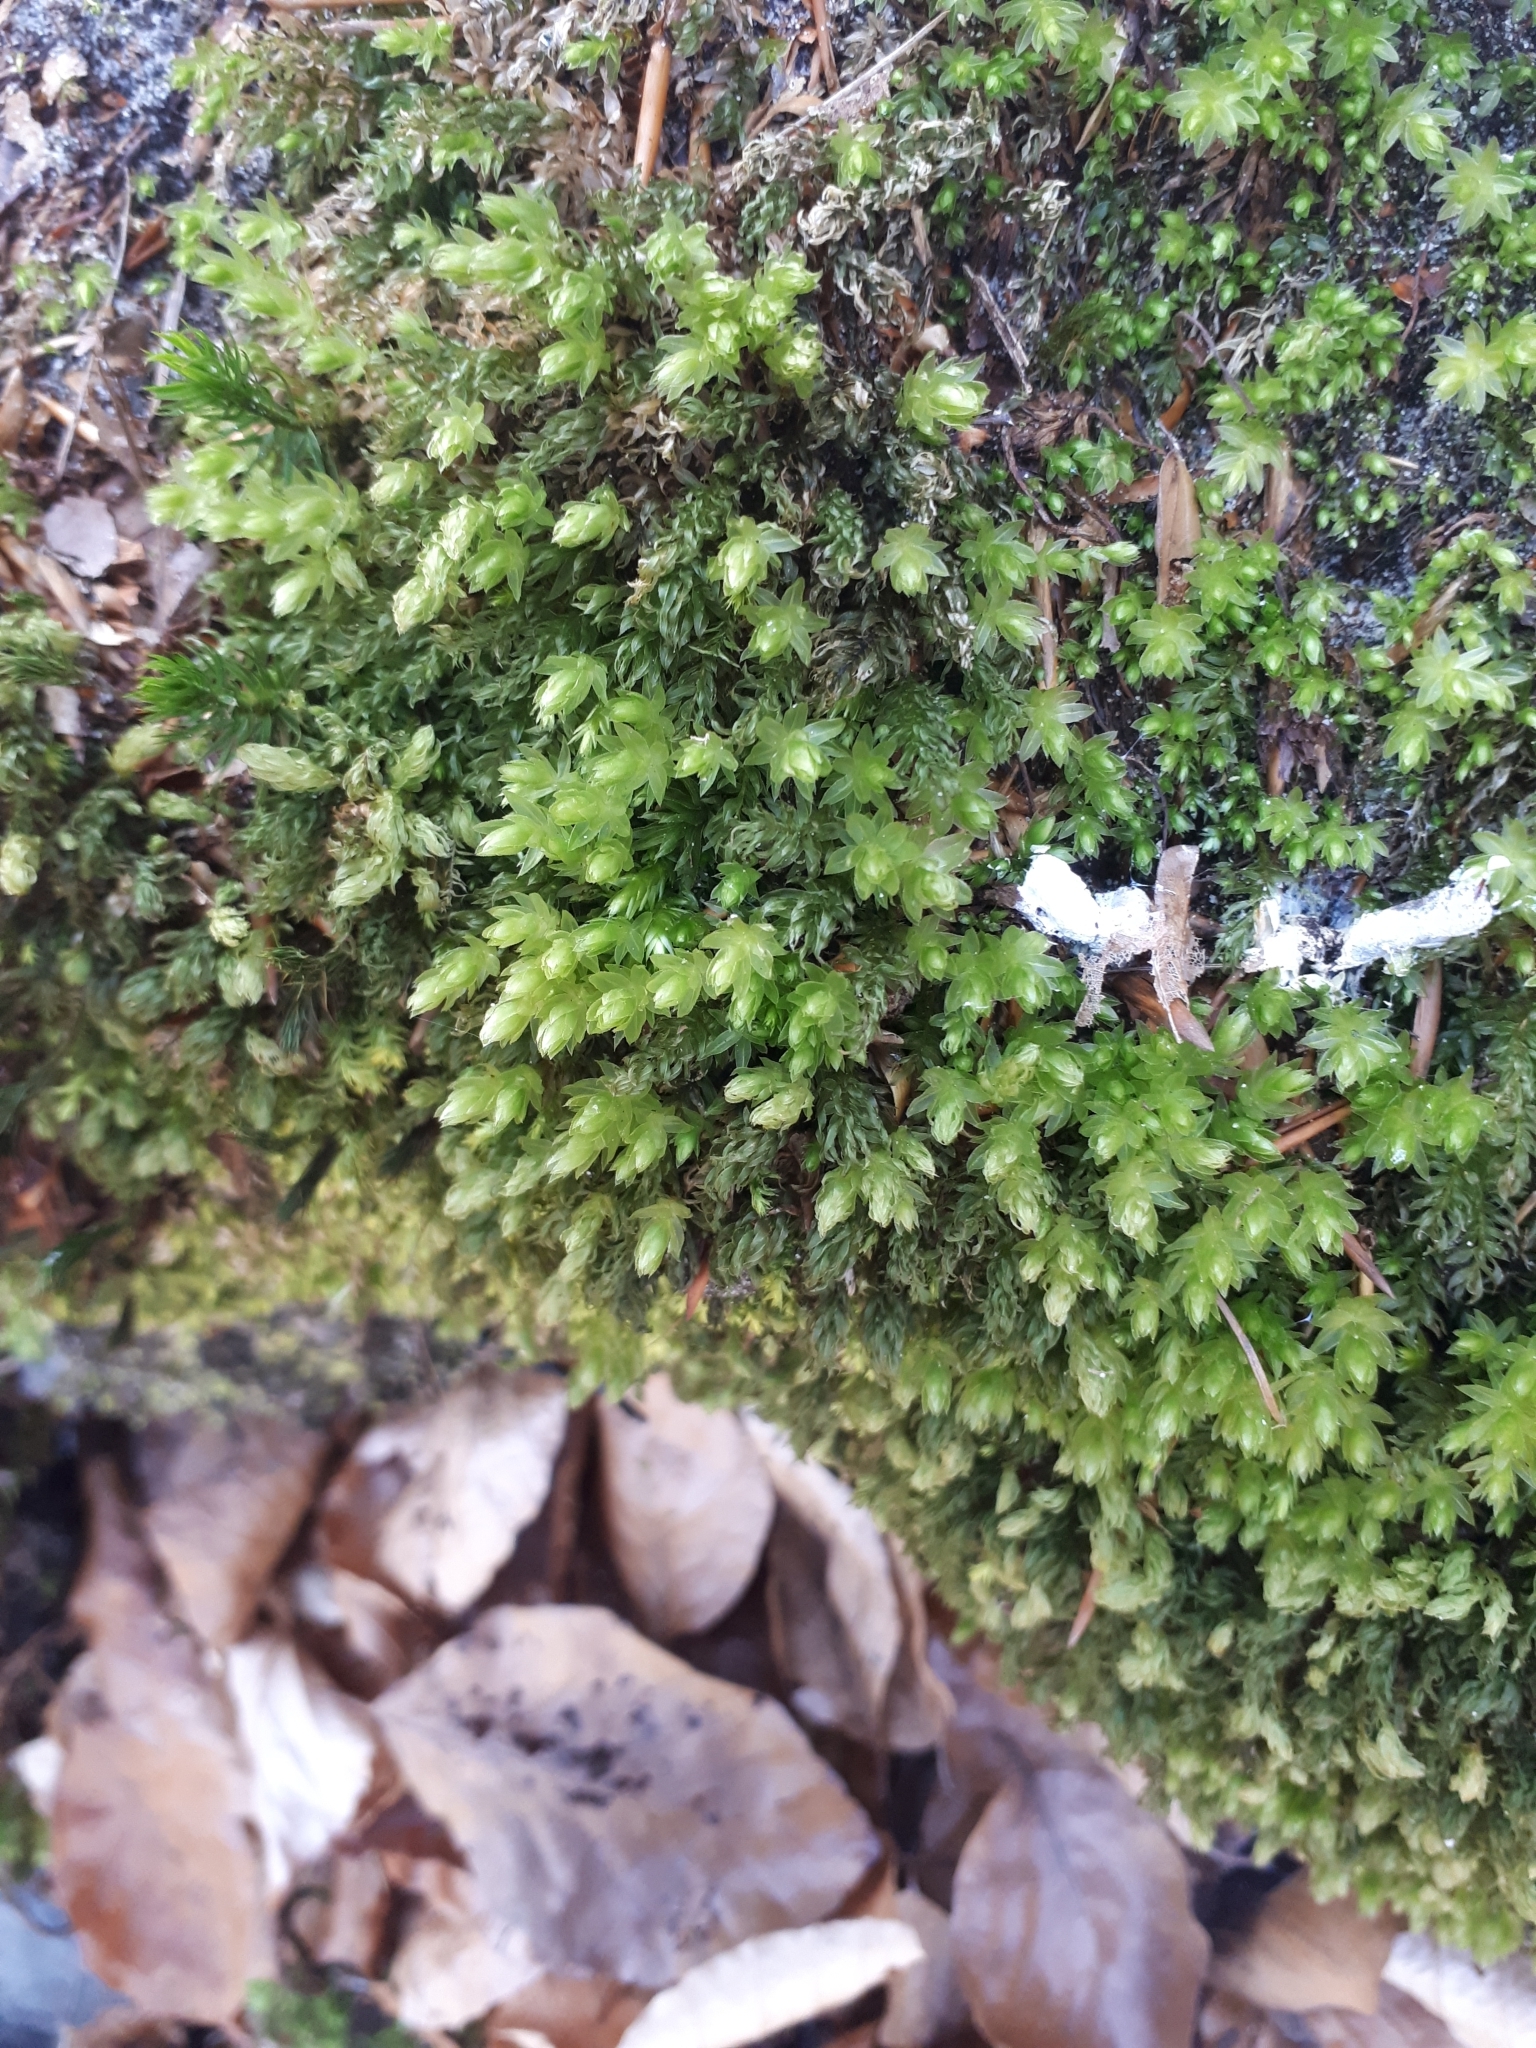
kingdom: Plantae
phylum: Bryophyta
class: Bryopsida
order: Bryales
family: Mniaceae
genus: Mnium
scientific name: Mnium hornum
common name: Swan's-neck leafy moss
